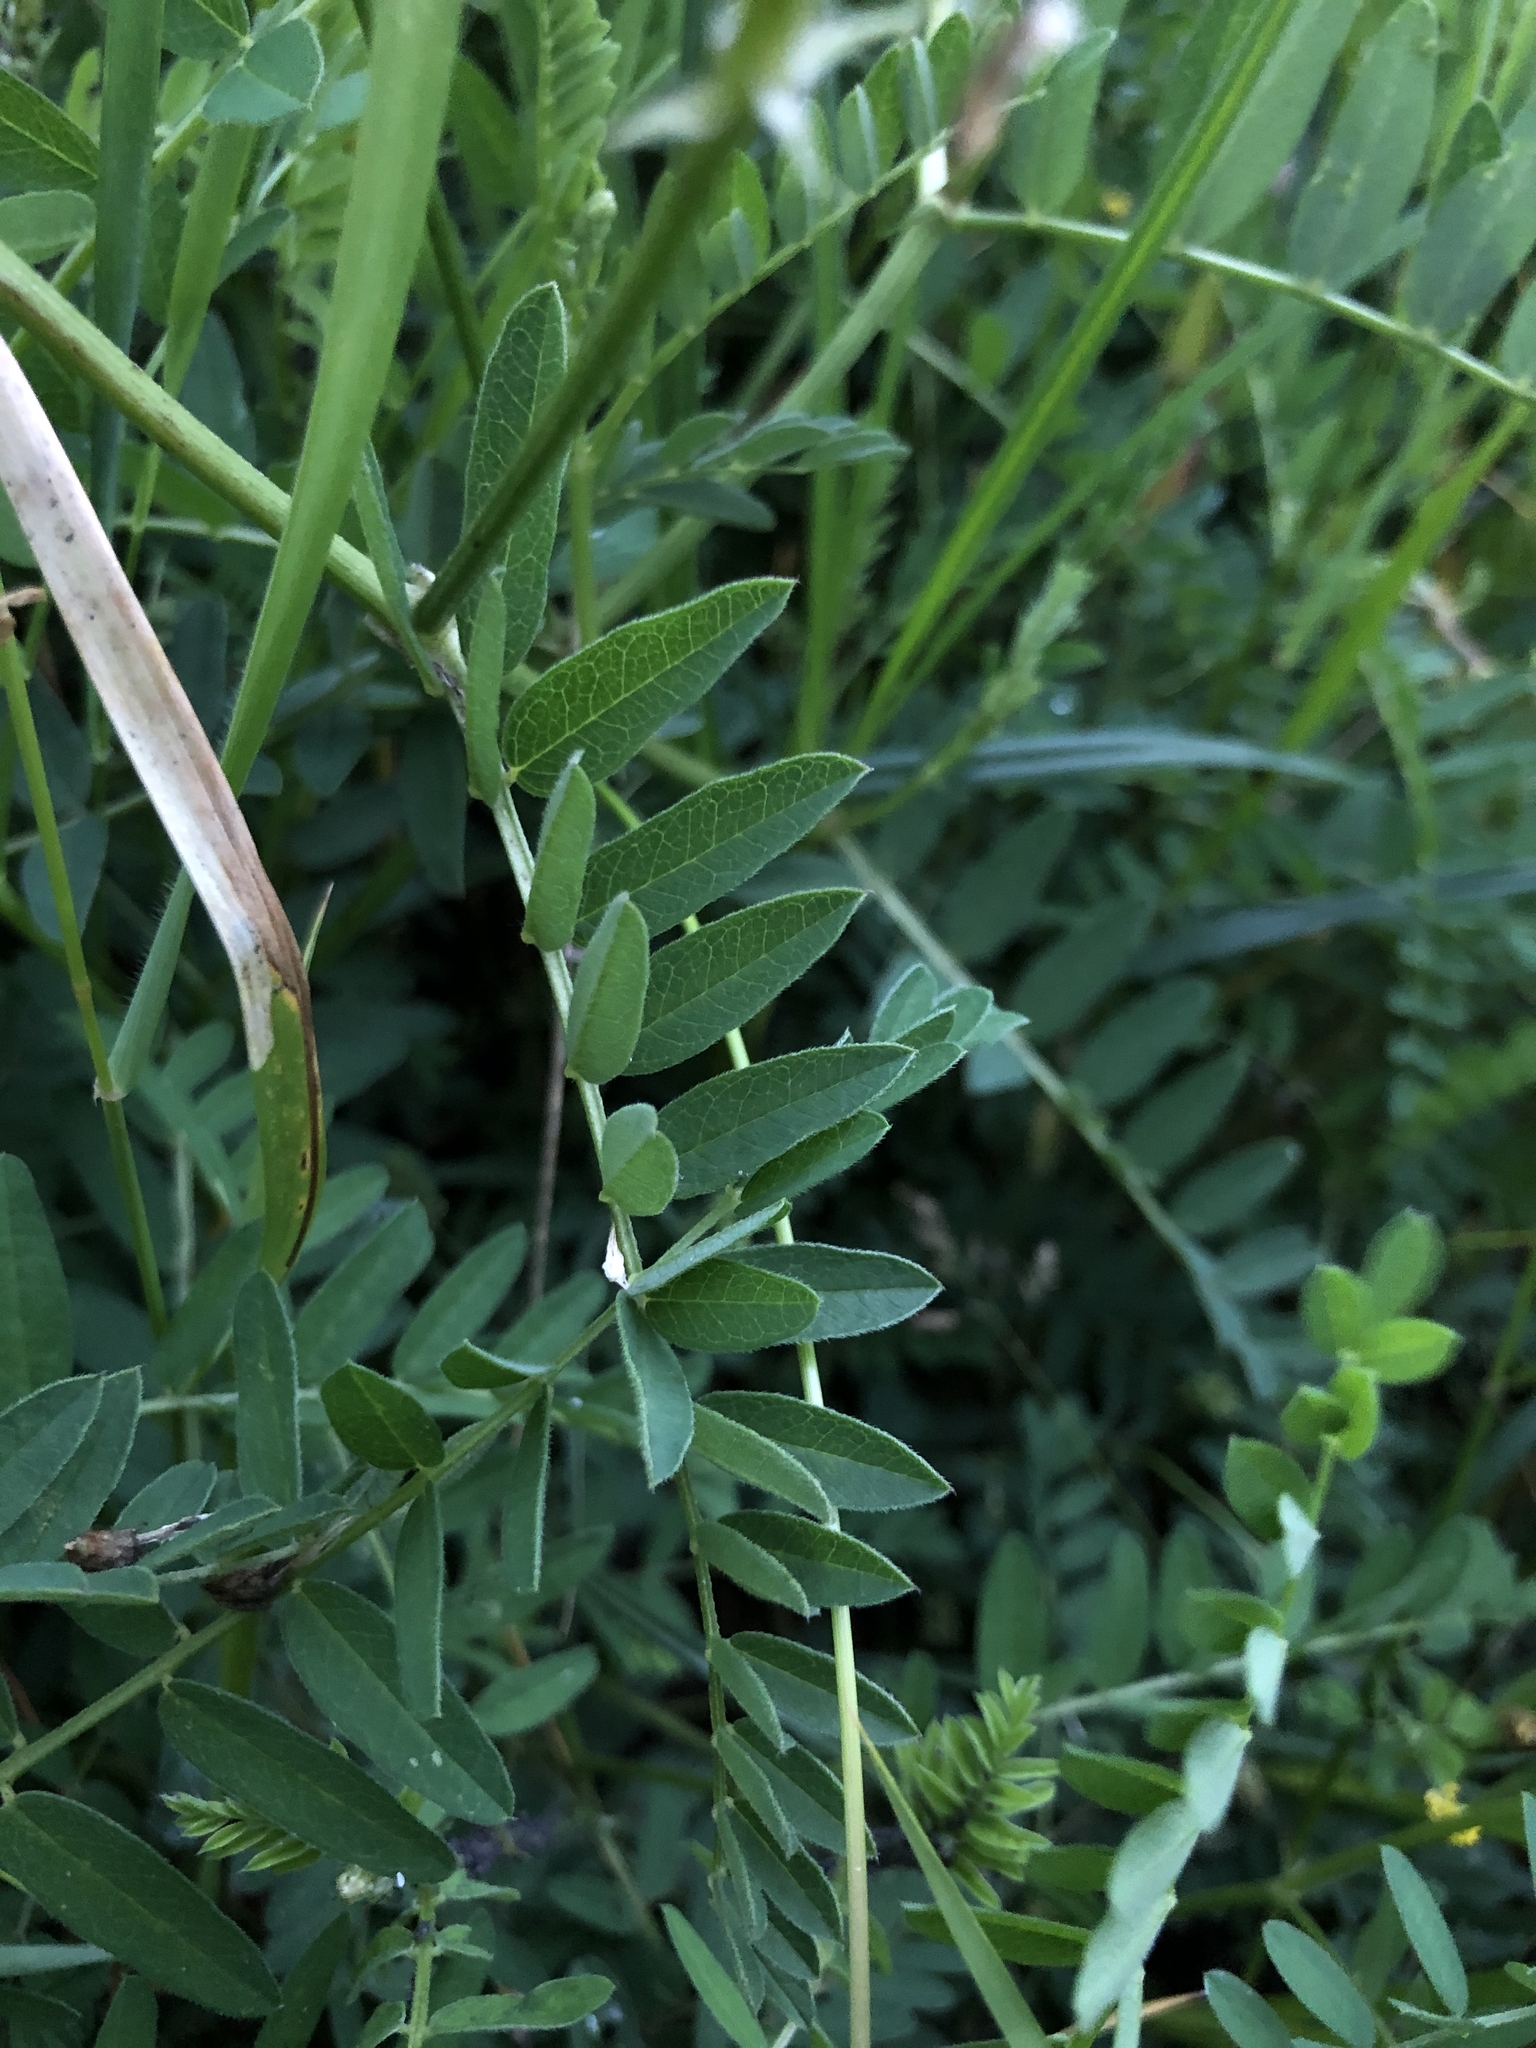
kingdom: Plantae
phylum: Tracheophyta
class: Magnoliopsida
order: Fabales
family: Fabaceae
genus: Astragalus
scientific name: Astragalus cicer
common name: Chick-pea milk-vetch
